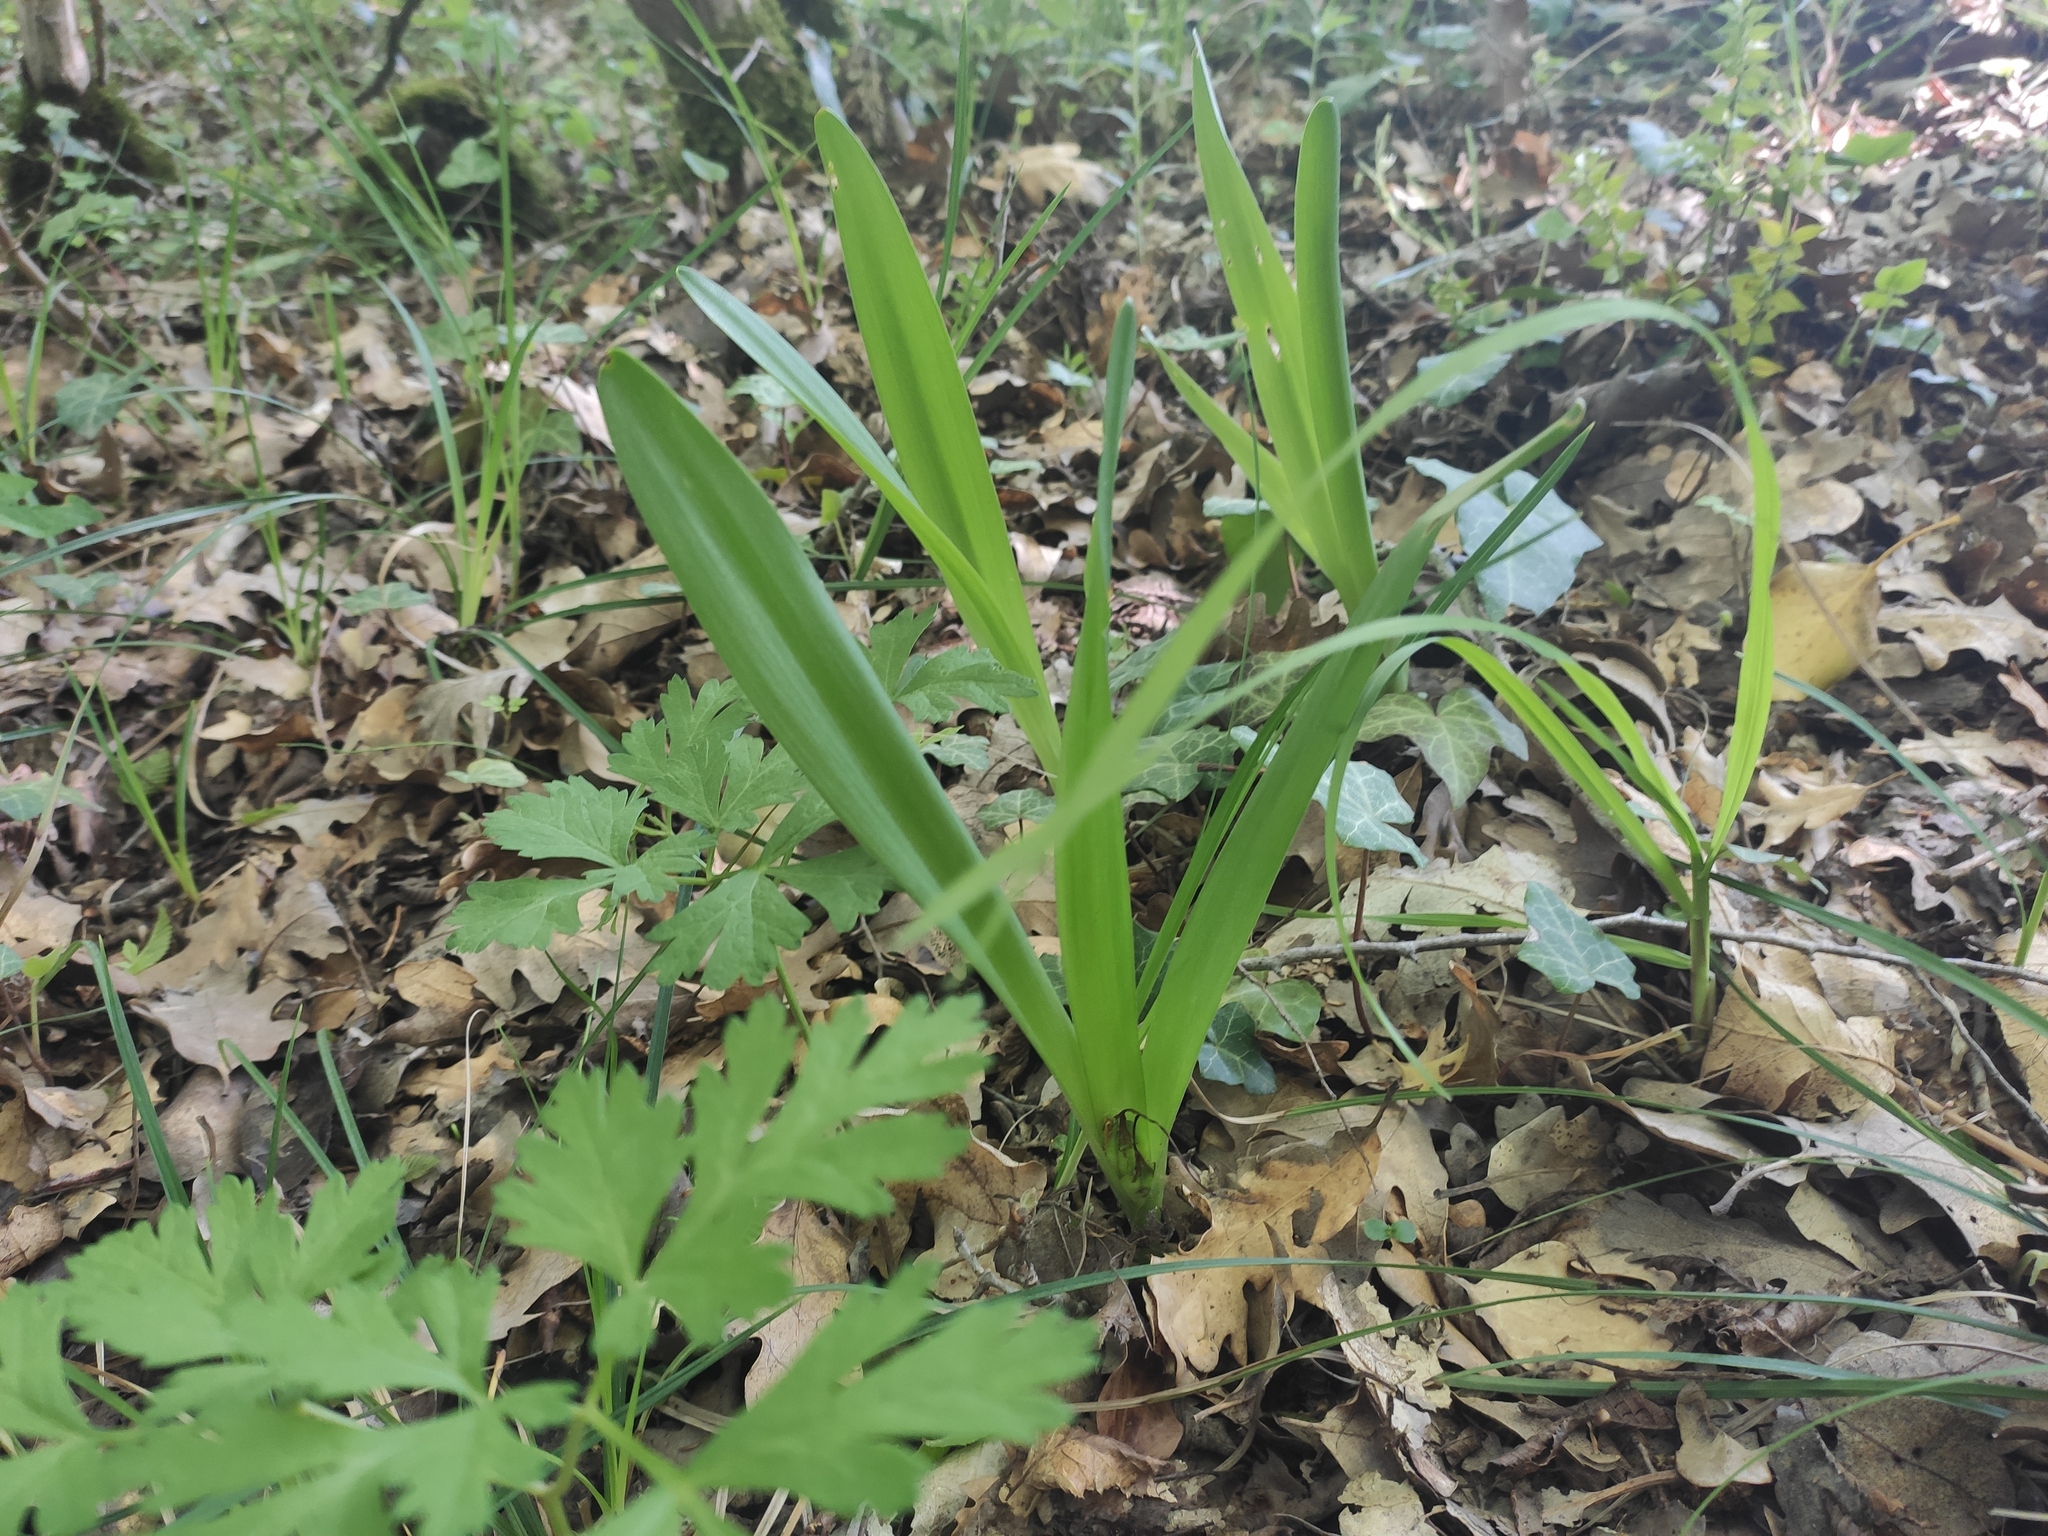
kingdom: Plantae
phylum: Tracheophyta
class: Liliopsida
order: Liliales
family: Colchicaceae
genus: Colchicum
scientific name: Colchicum umbrosum
